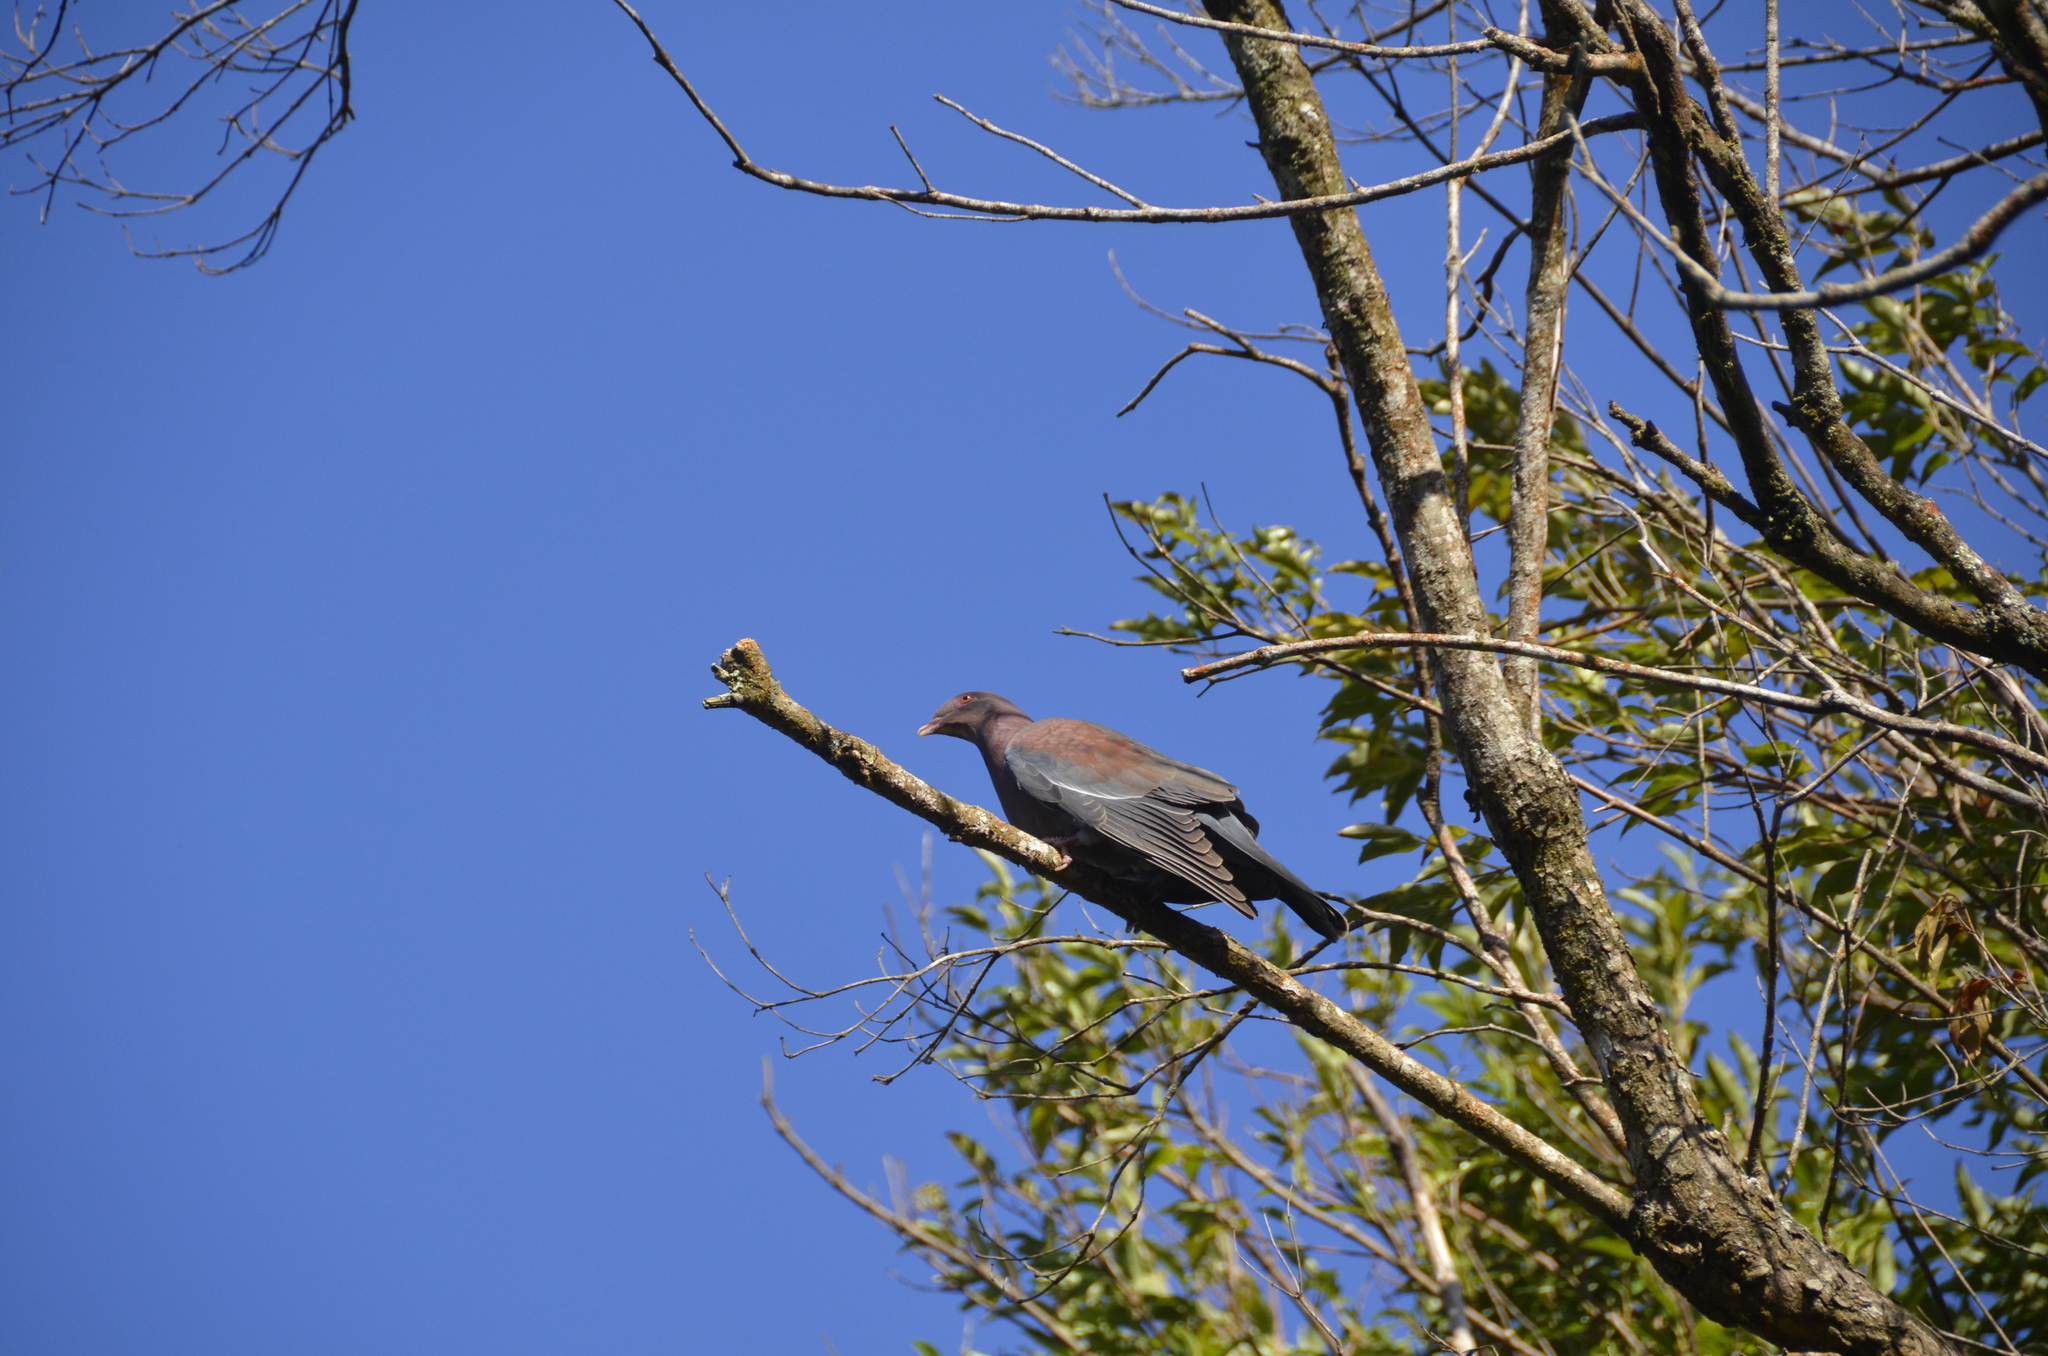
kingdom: Animalia
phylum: Chordata
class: Aves
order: Columbiformes
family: Columbidae
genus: Patagioenas
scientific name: Patagioenas flavirostris
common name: Red-billed pigeon
